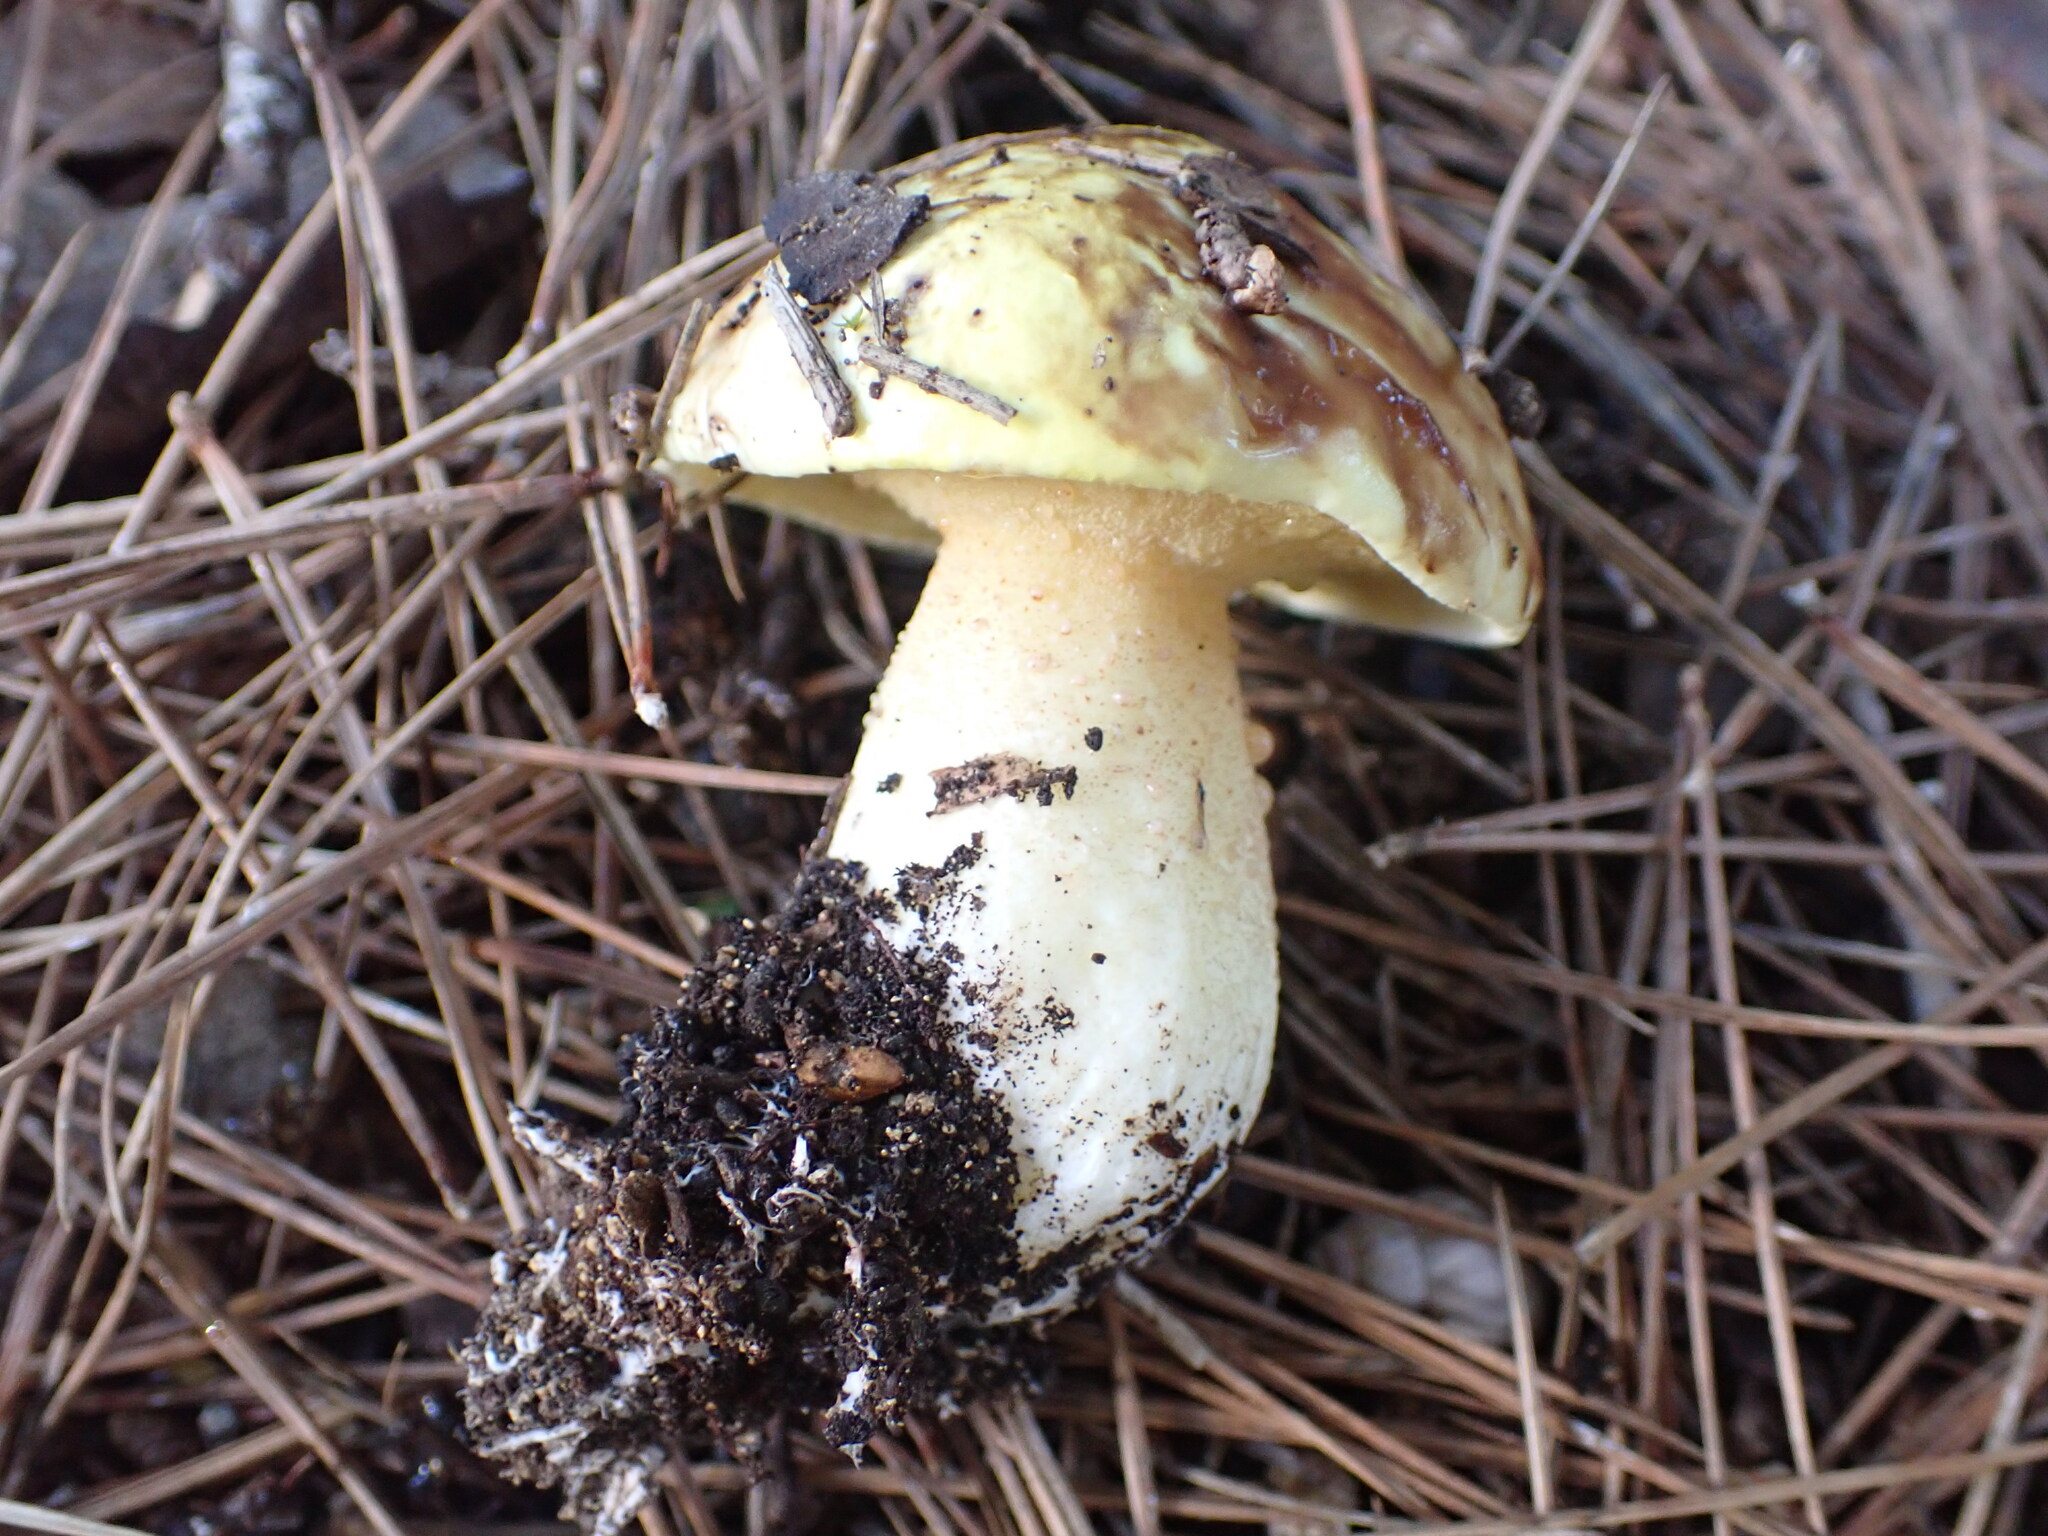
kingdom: Fungi
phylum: Basidiomycota
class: Agaricomycetes
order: Boletales
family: Suillaceae
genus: Suillus
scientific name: Suillus bellinii
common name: Champagne bolete
